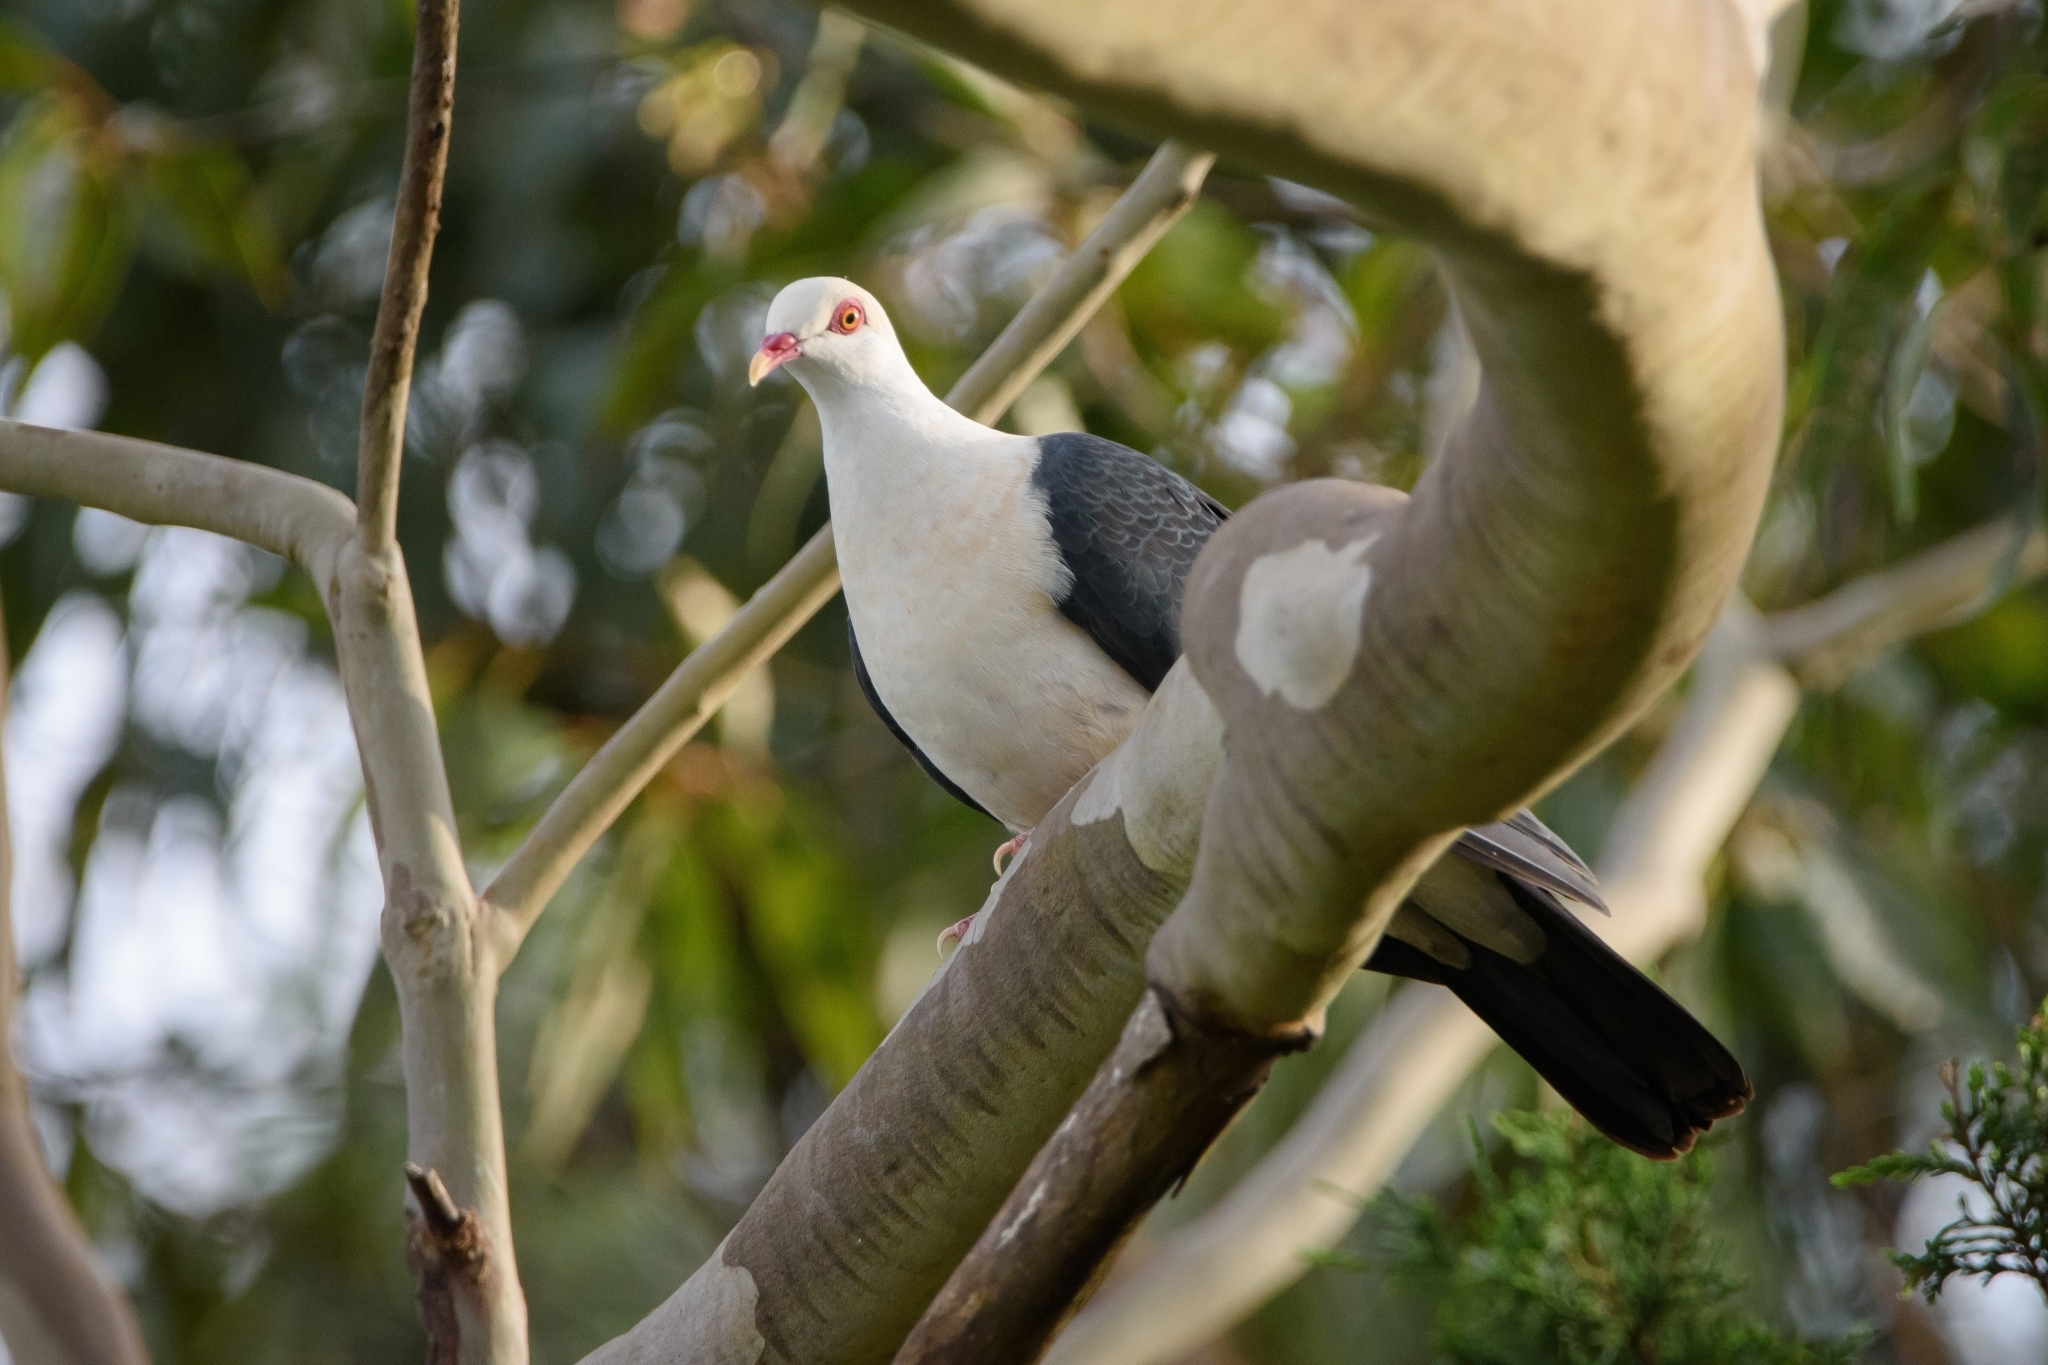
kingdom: Animalia
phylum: Chordata
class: Aves
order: Columbiformes
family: Columbidae
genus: Columba
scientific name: Columba leucomela
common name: White-headed pigeon
